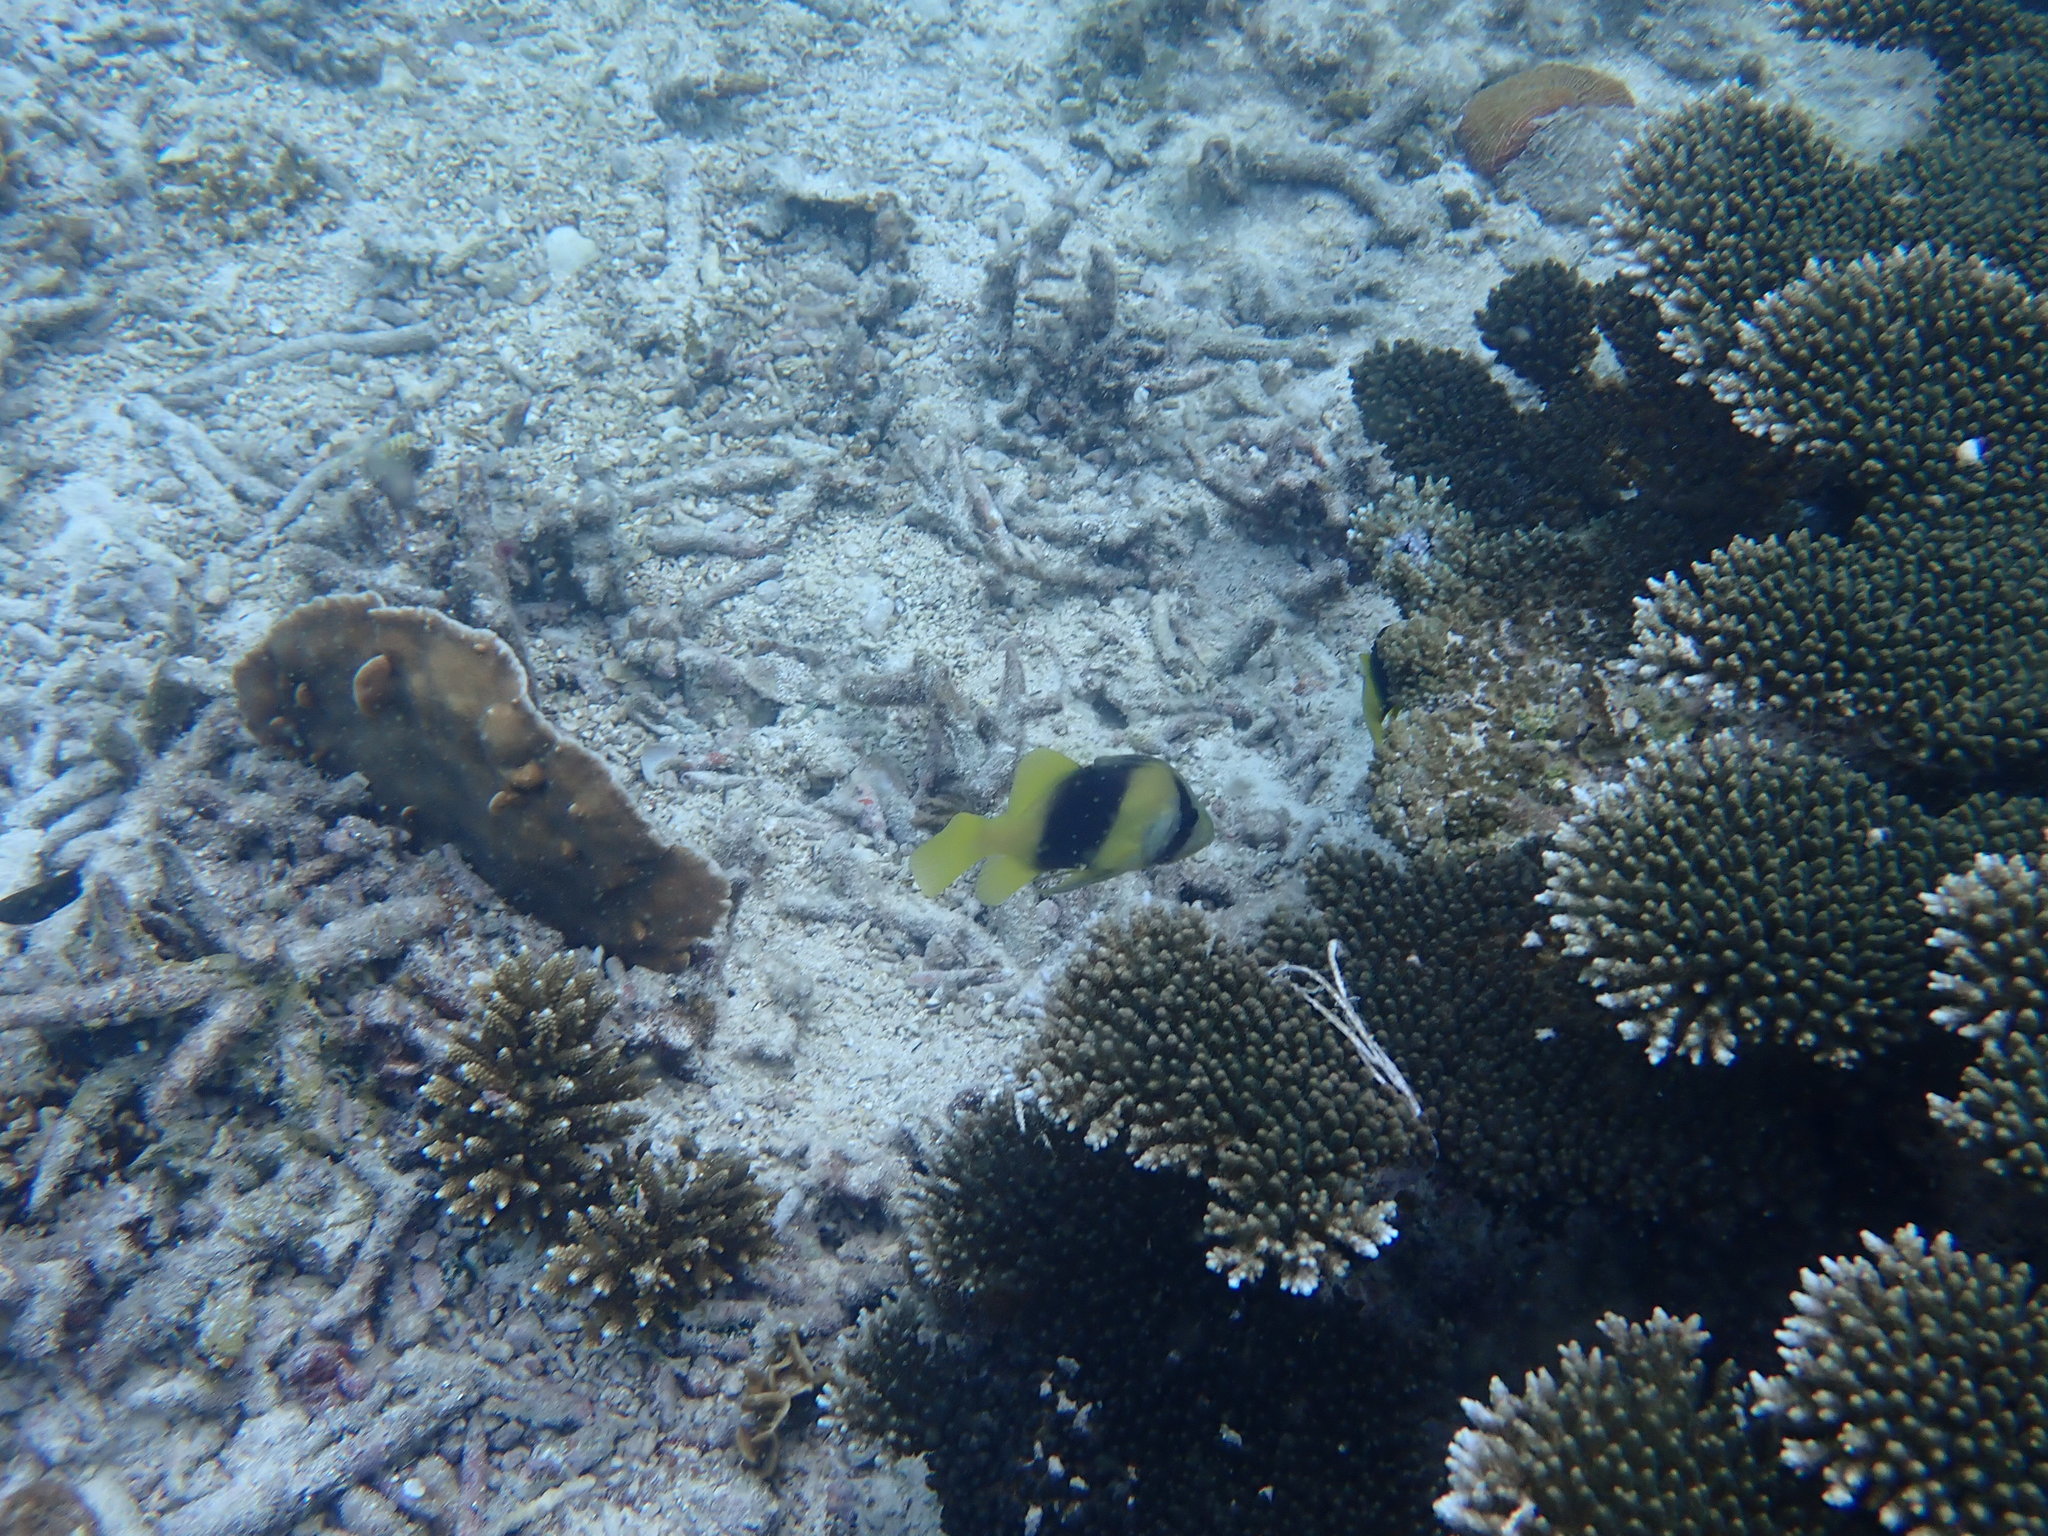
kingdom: Animalia
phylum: Chordata
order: Perciformes
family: Serranidae
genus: Diploprion
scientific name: Diploprion bifasciatum
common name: Barred soapfish
